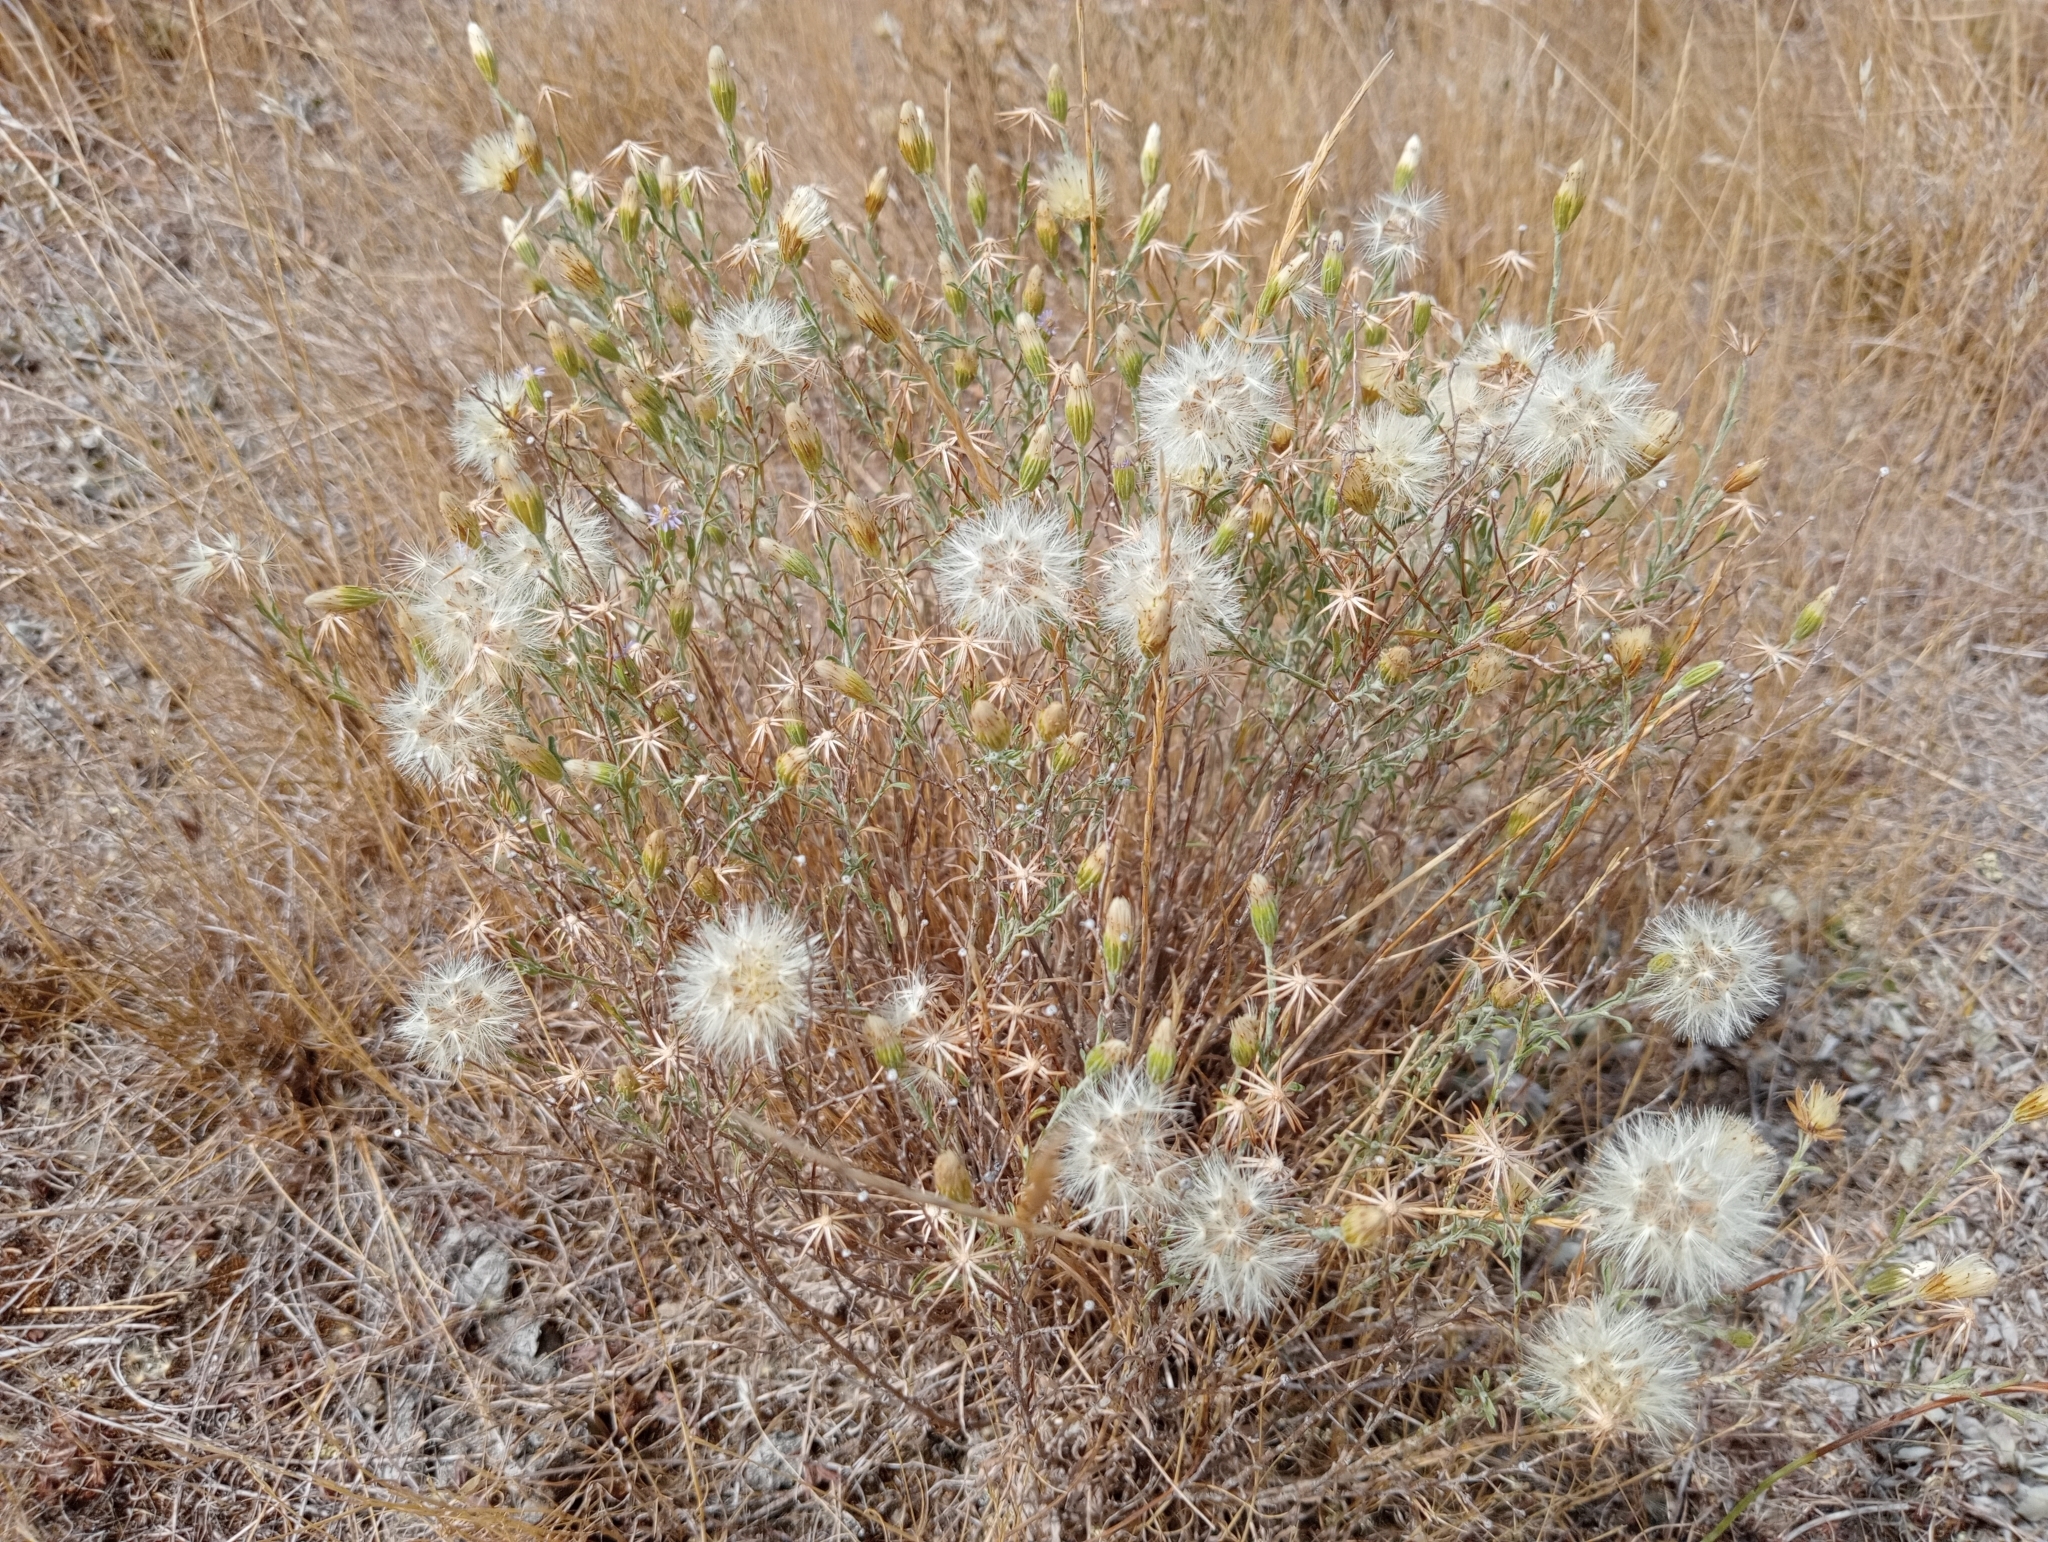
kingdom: Plantae
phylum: Tracheophyta
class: Magnoliopsida
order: Asterales
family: Asteraceae
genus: Vittadinia
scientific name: Vittadinia gracilis
